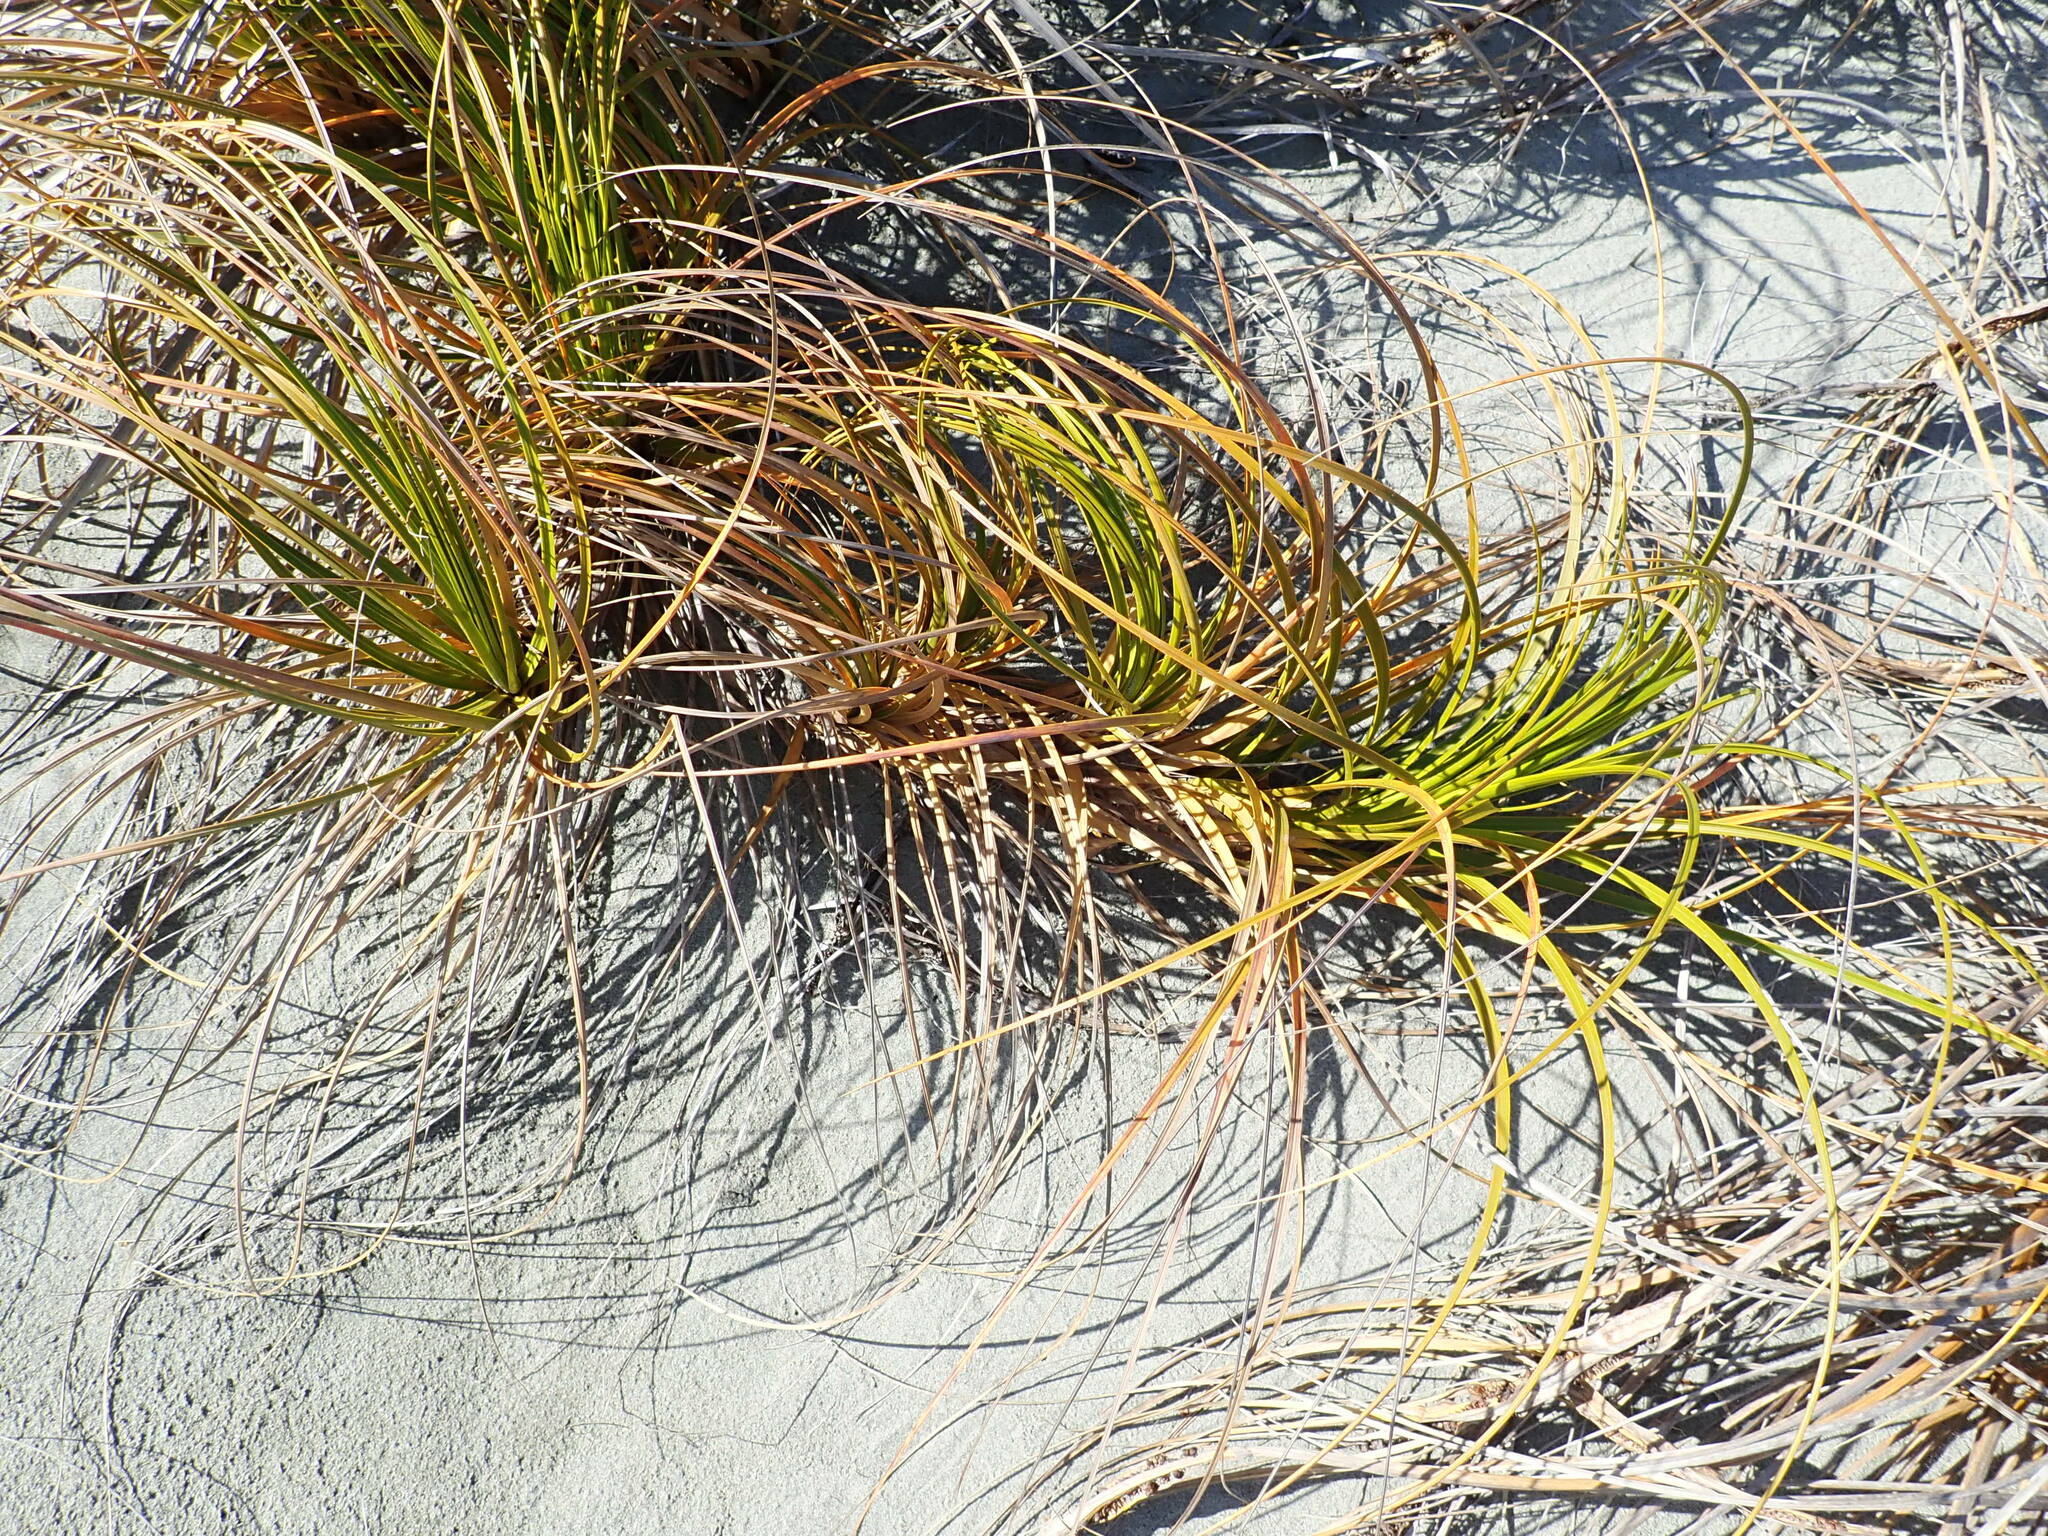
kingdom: Plantae
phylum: Tracheophyta
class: Liliopsida
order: Poales
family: Cyperaceae
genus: Ficinia
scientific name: Ficinia spiralis
